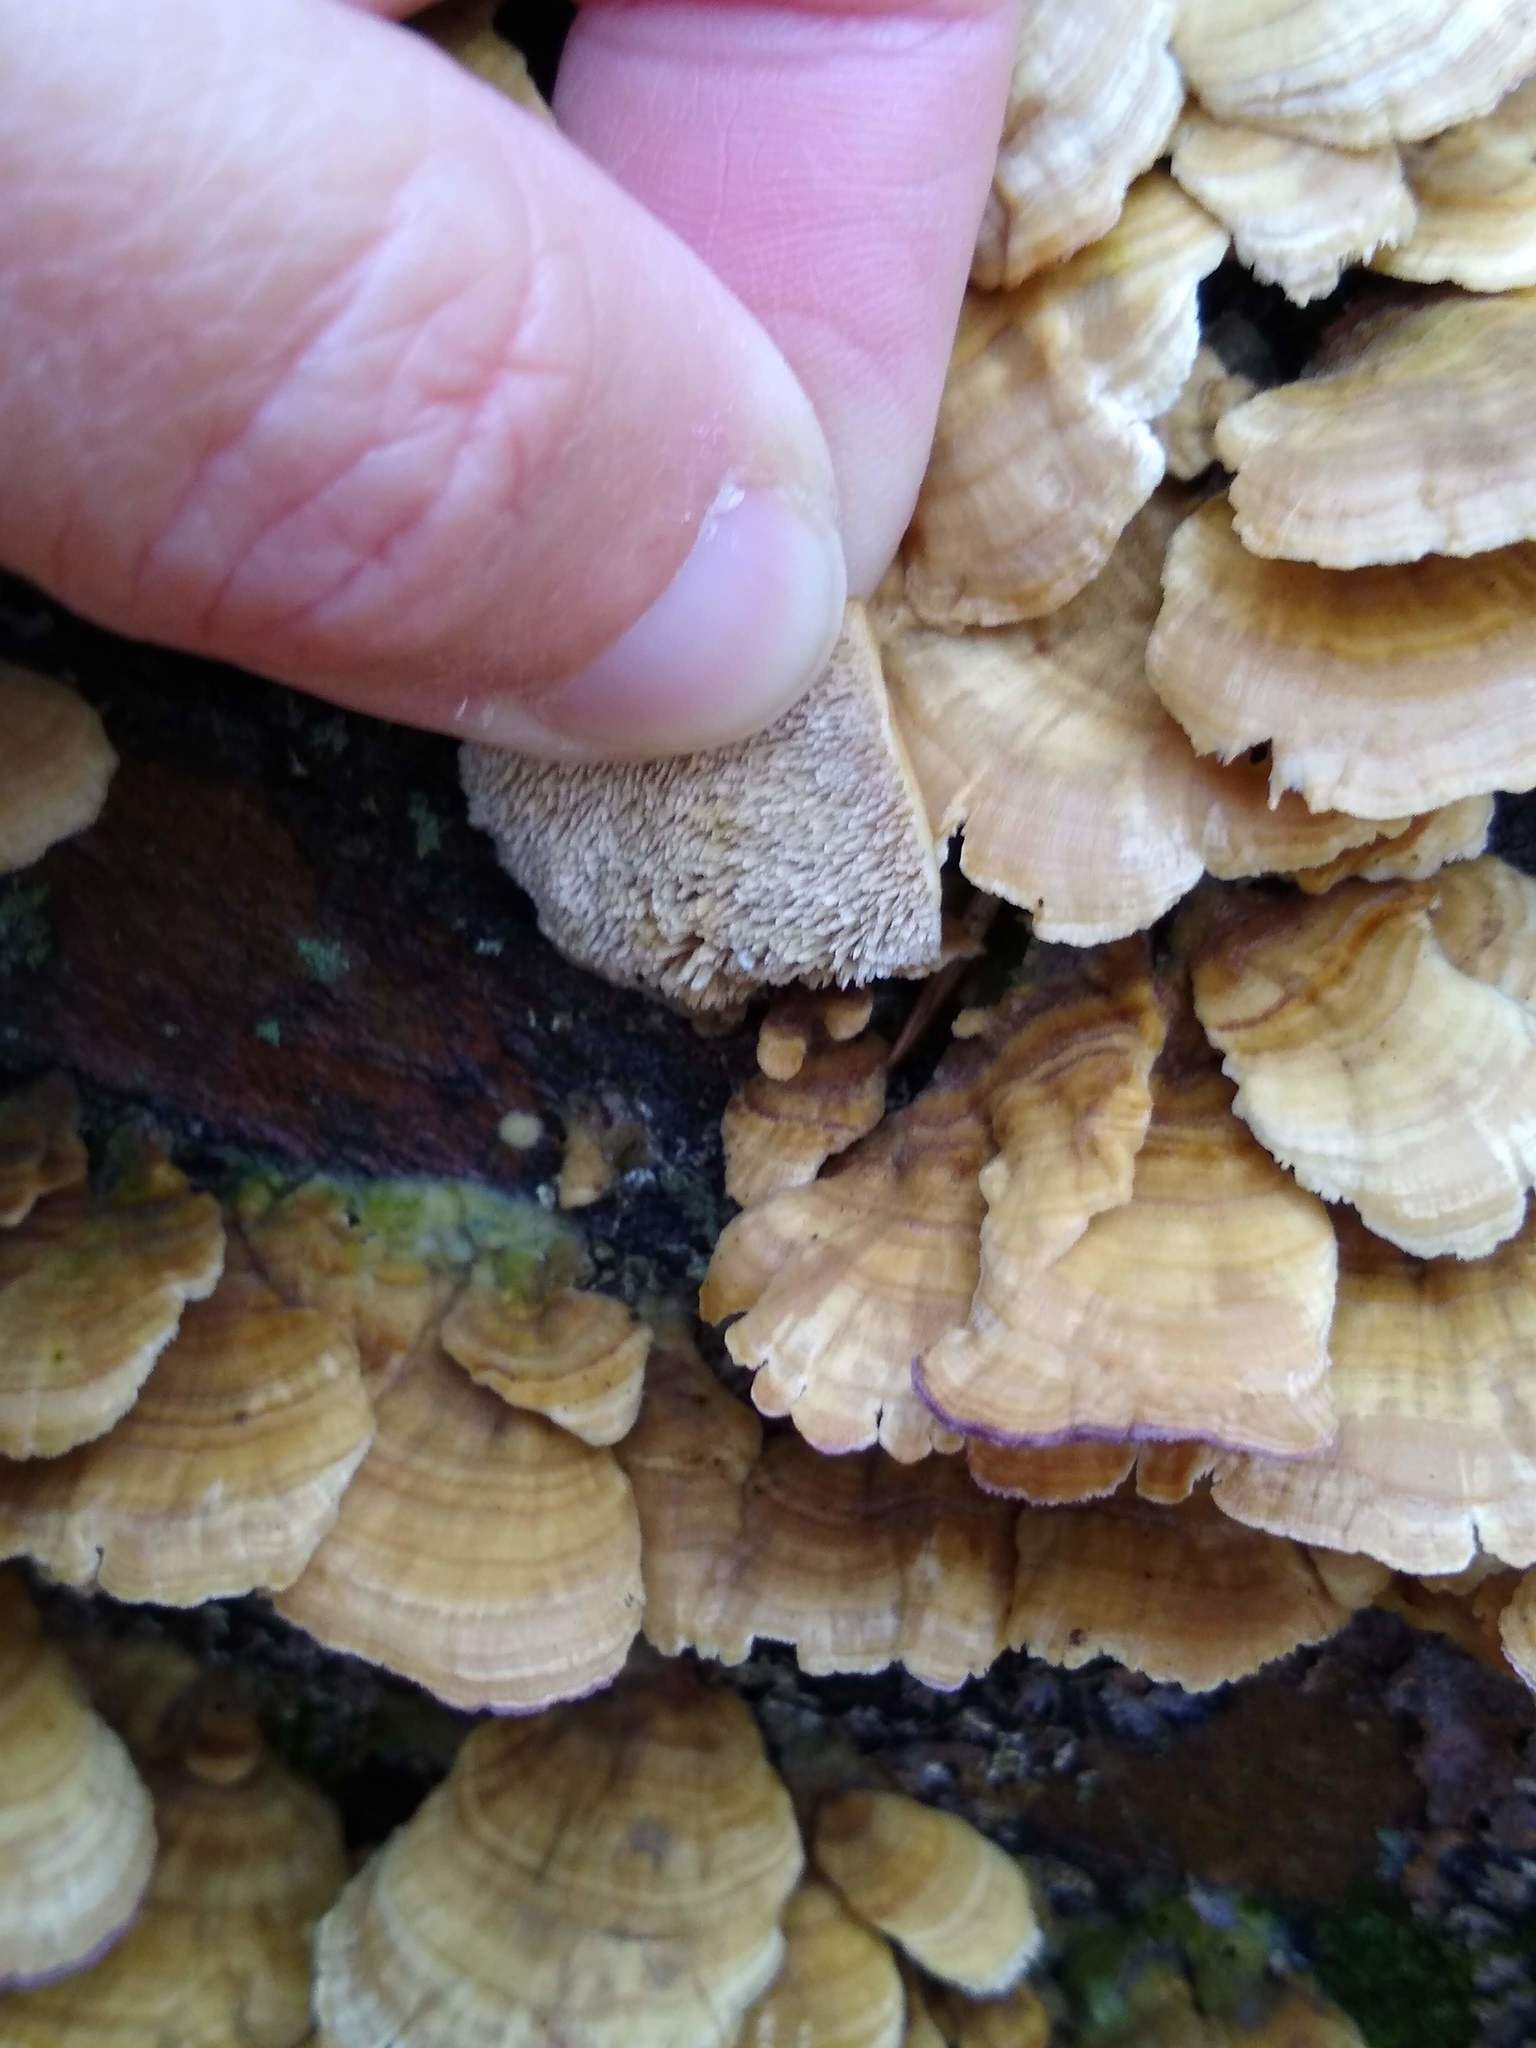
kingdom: Fungi
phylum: Basidiomycota
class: Agaricomycetes
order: Hymenochaetales
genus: Trichaptum
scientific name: Trichaptum biforme
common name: Violet-toothed polypore
